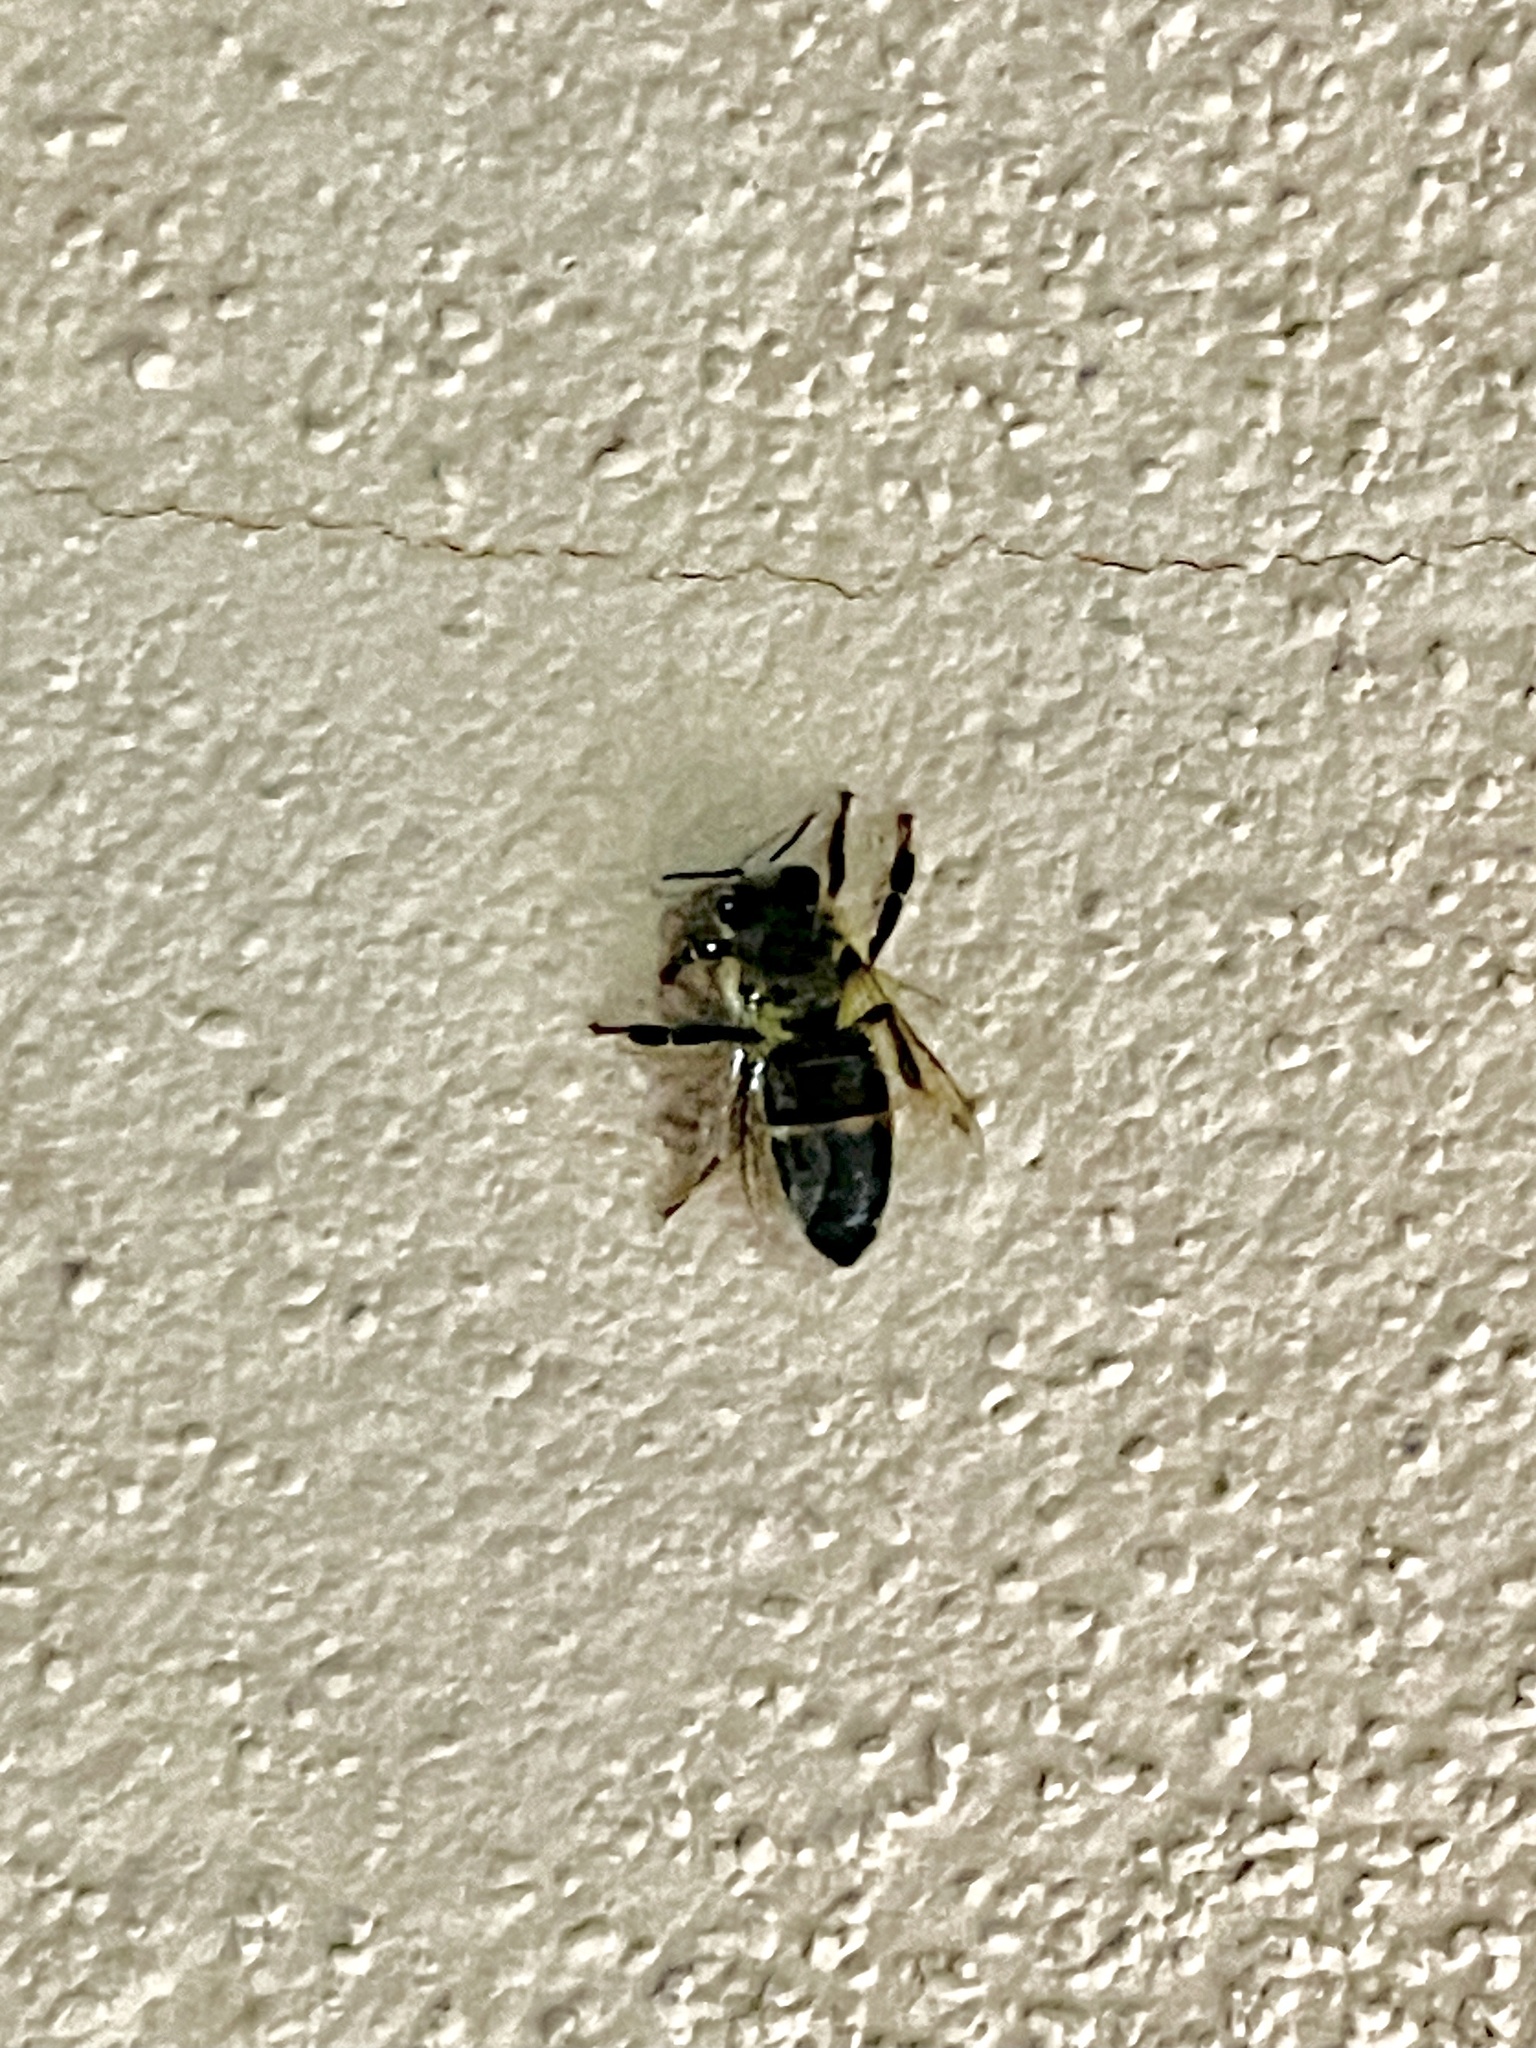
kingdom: Animalia
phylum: Arthropoda
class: Insecta
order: Hymenoptera
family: Apidae
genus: Apis
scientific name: Apis mellifera
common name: Honey bee
